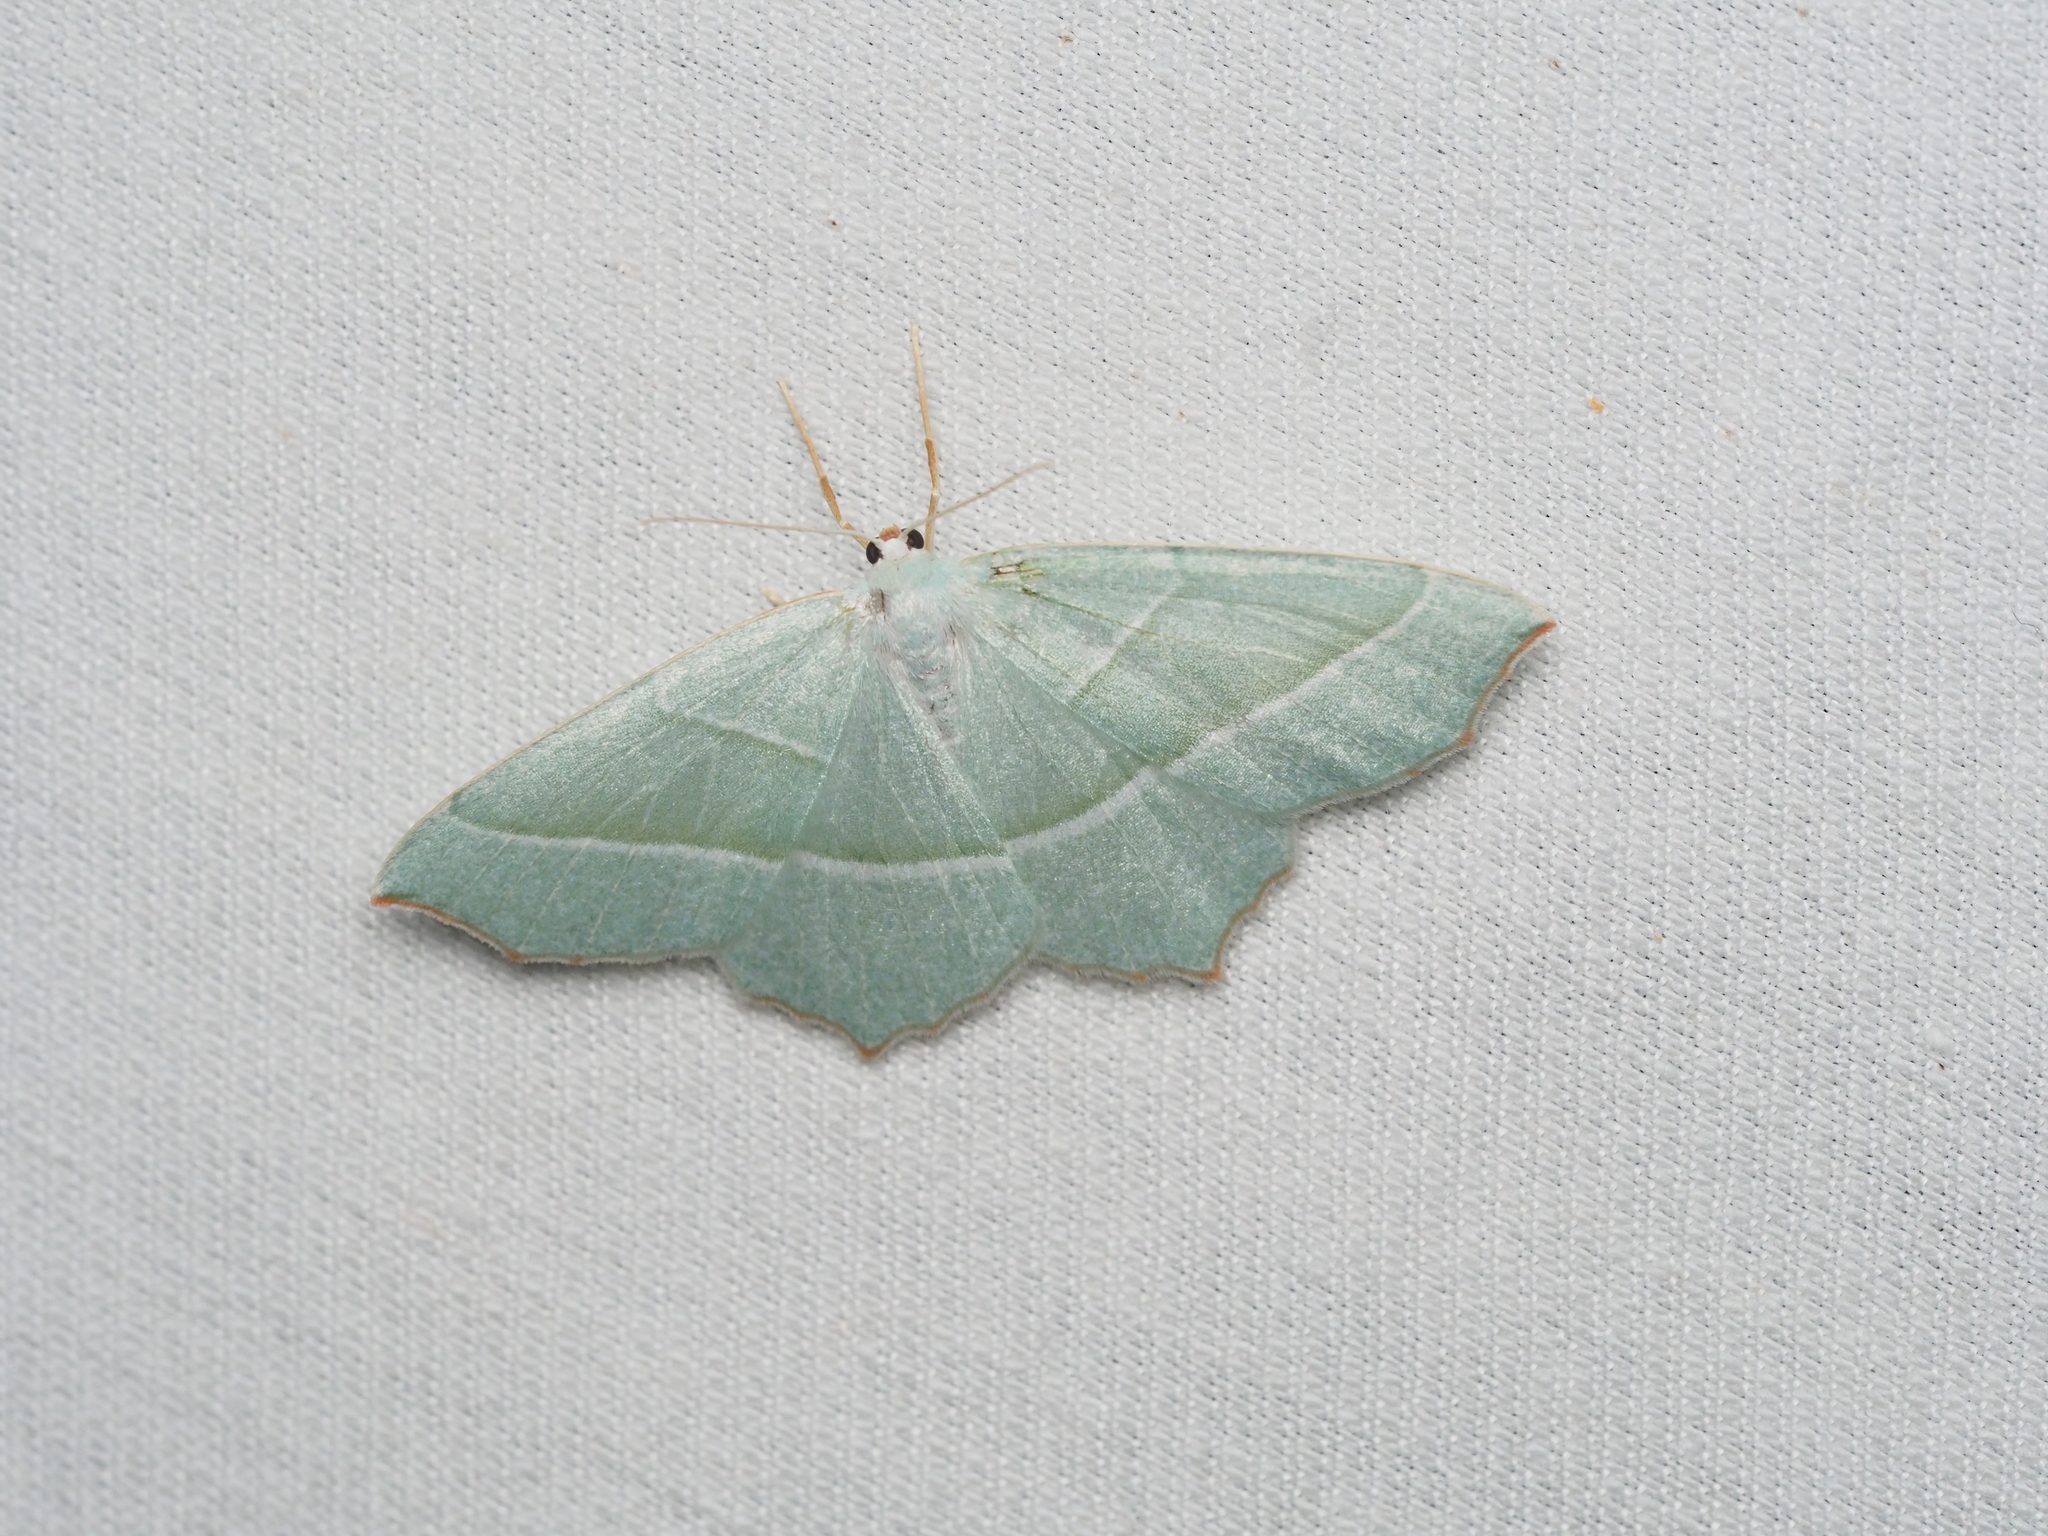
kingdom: Animalia
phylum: Arthropoda
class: Insecta
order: Lepidoptera
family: Geometridae
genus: Campaea
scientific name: Campaea margaritaria
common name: Light emerald
